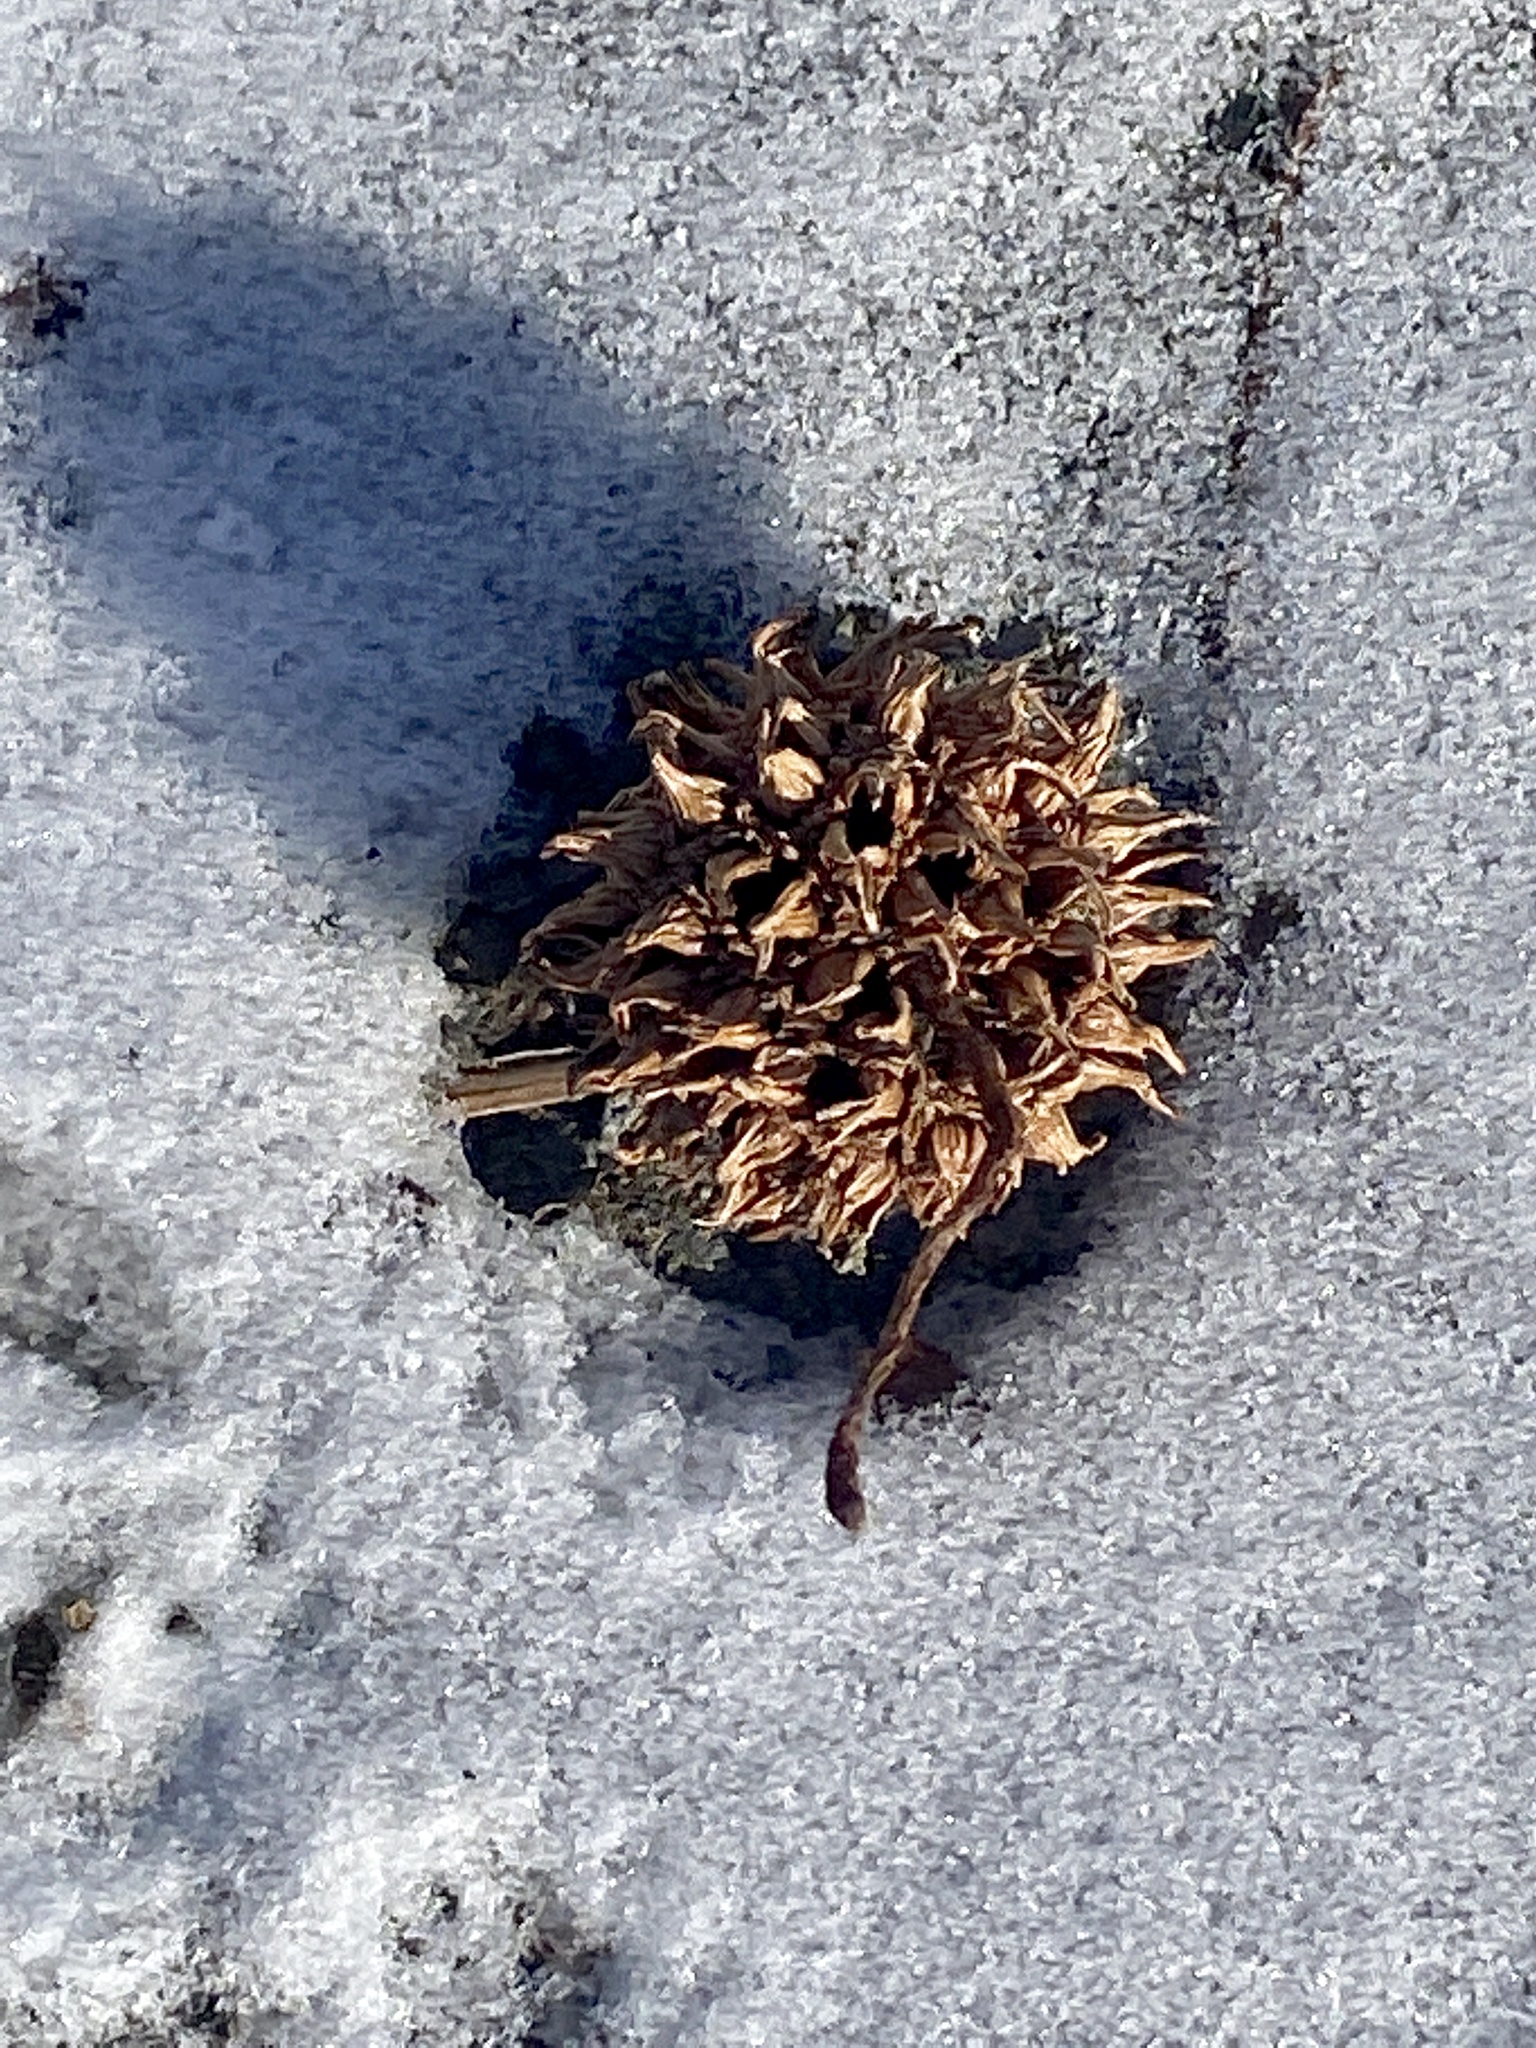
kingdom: Plantae
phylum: Tracheophyta
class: Magnoliopsida
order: Saxifragales
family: Altingiaceae
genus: Liquidambar
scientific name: Liquidambar styraciflua
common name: Sweet gum
